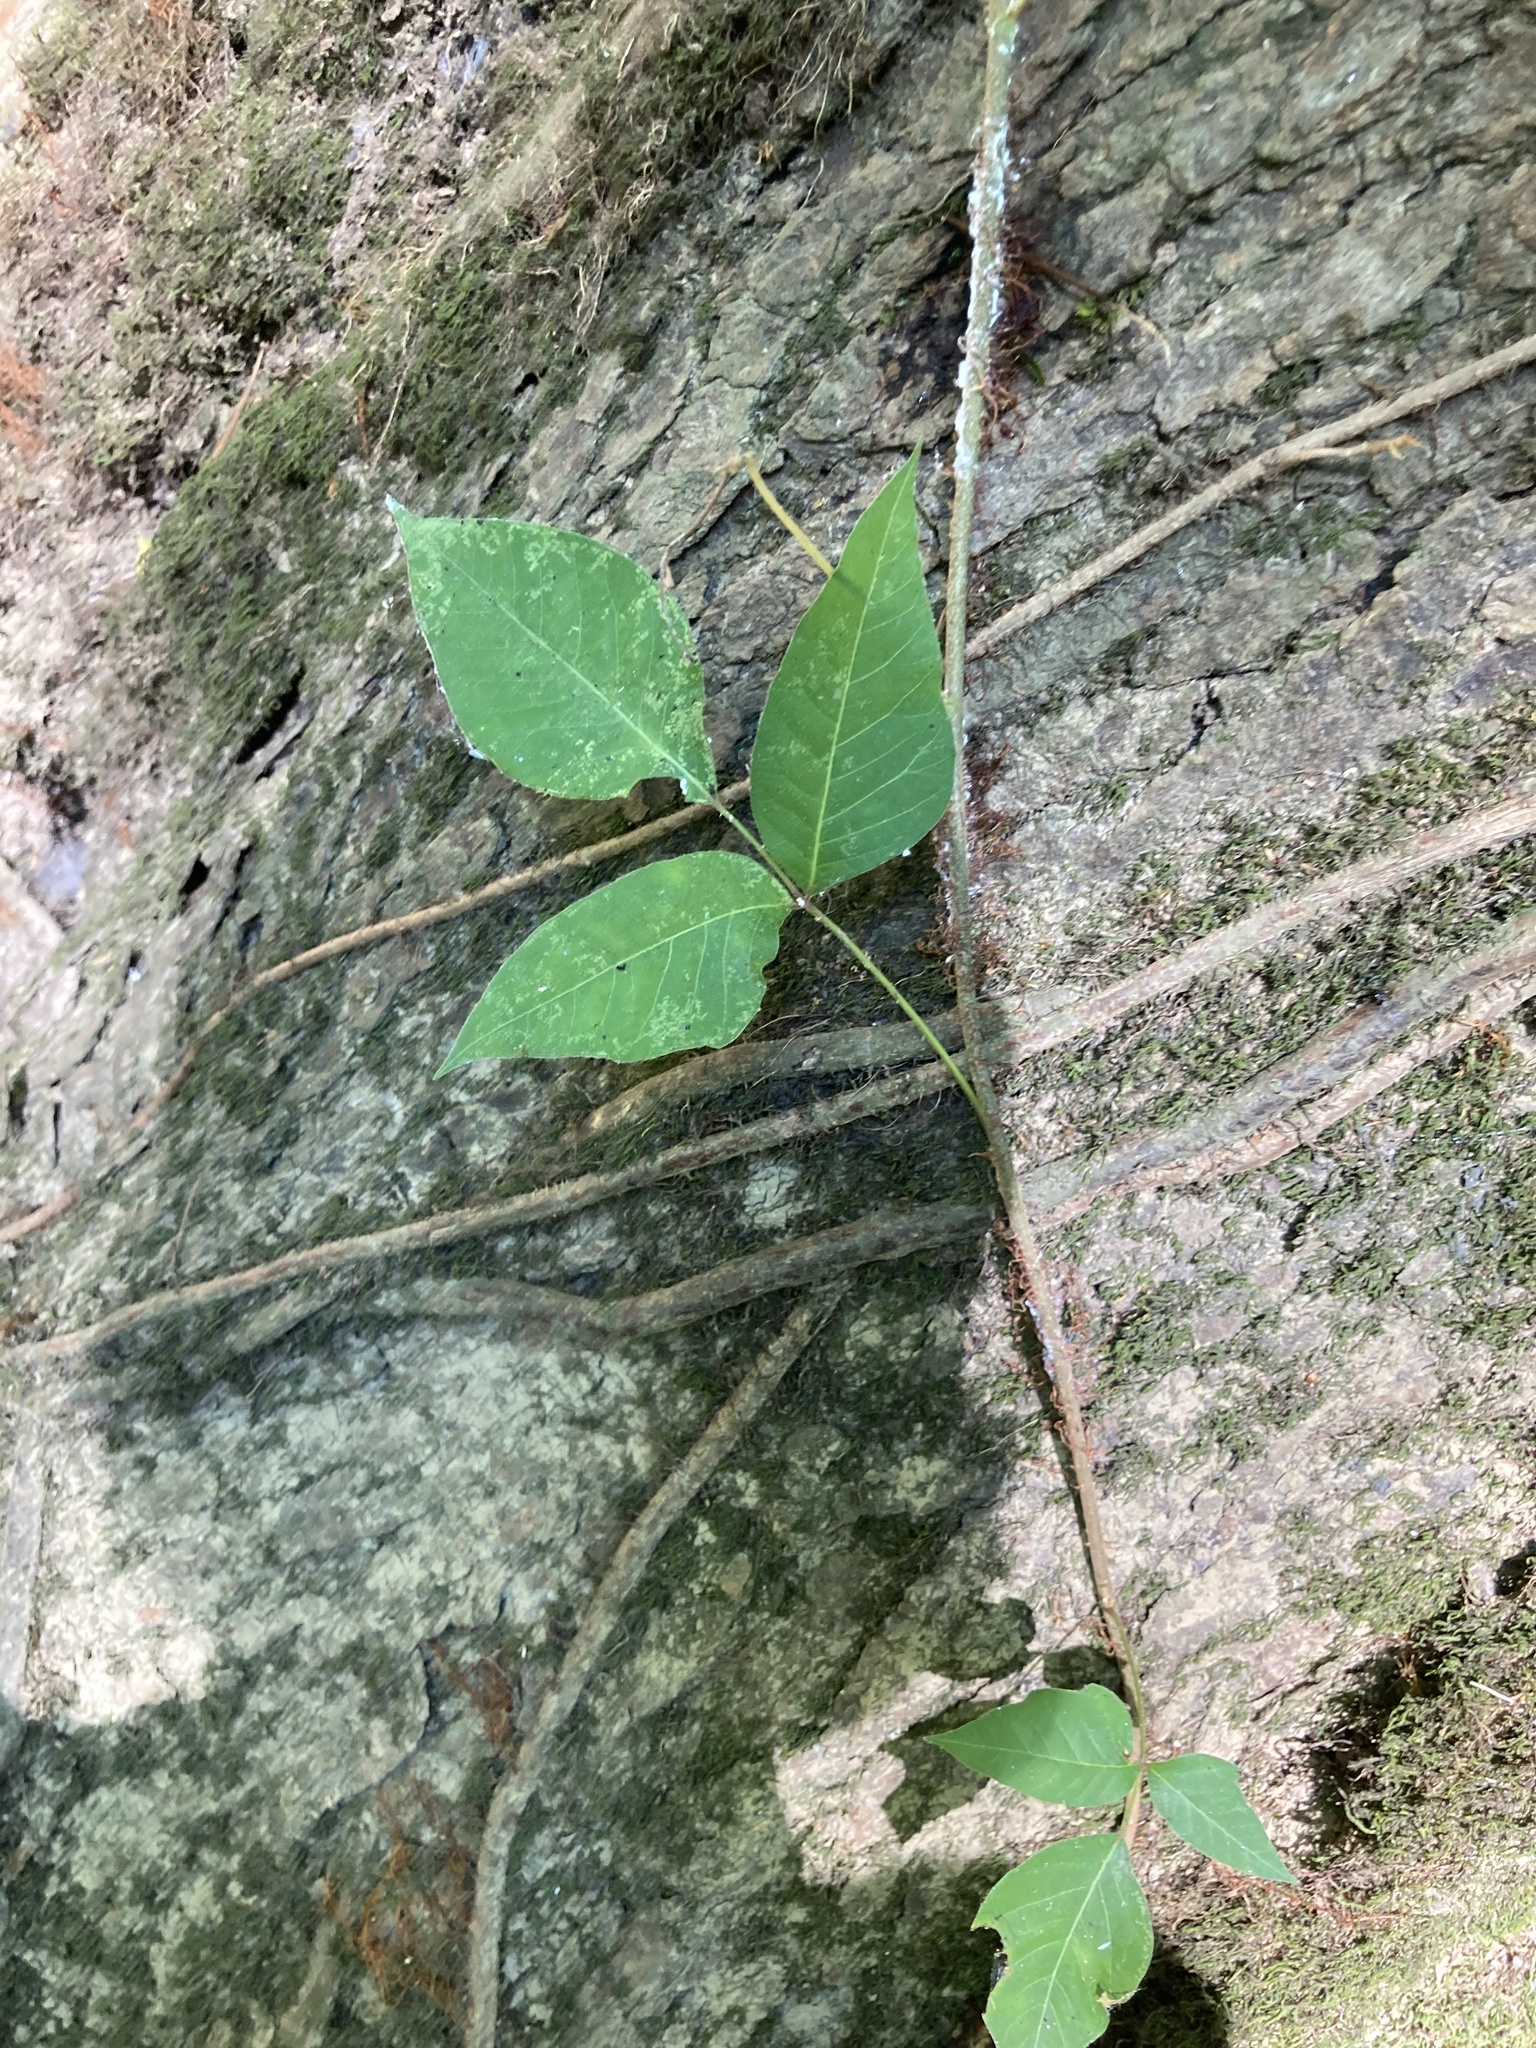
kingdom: Plantae
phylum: Tracheophyta
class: Magnoliopsida
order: Sapindales
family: Anacardiaceae
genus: Toxicodendron
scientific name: Toxicodendron radicans
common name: Poison ivy
